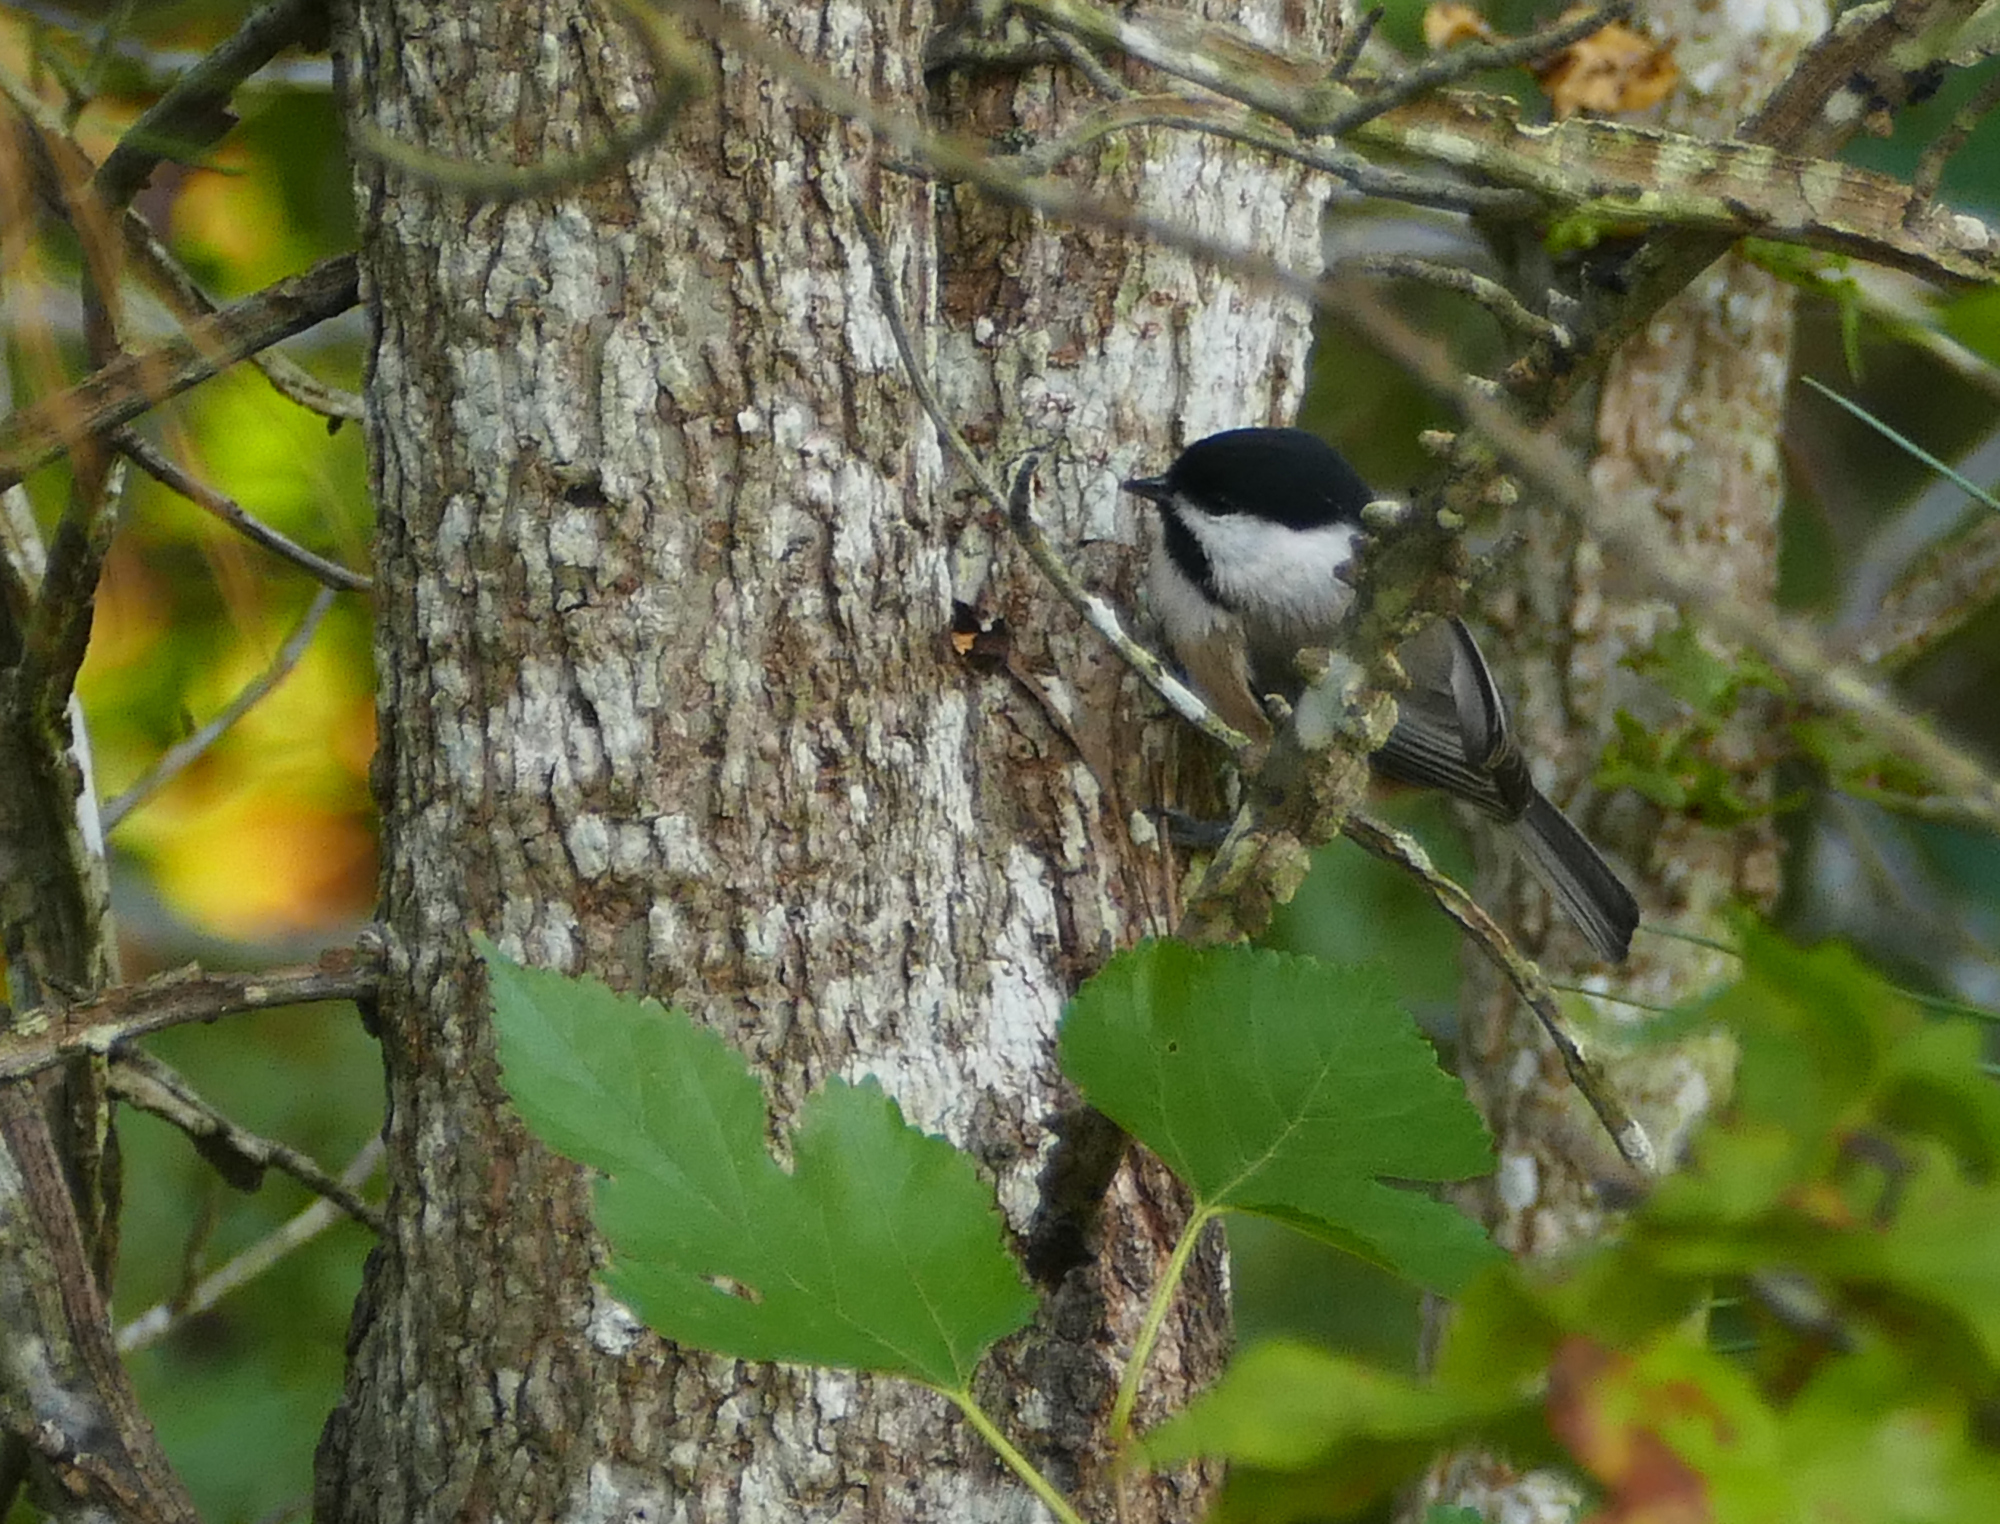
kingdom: Animalia
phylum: Chordata
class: Aves
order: Passeriformes
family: Paridae
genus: Poecile
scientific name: Poecile carolinensis
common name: Carolina chickadee
